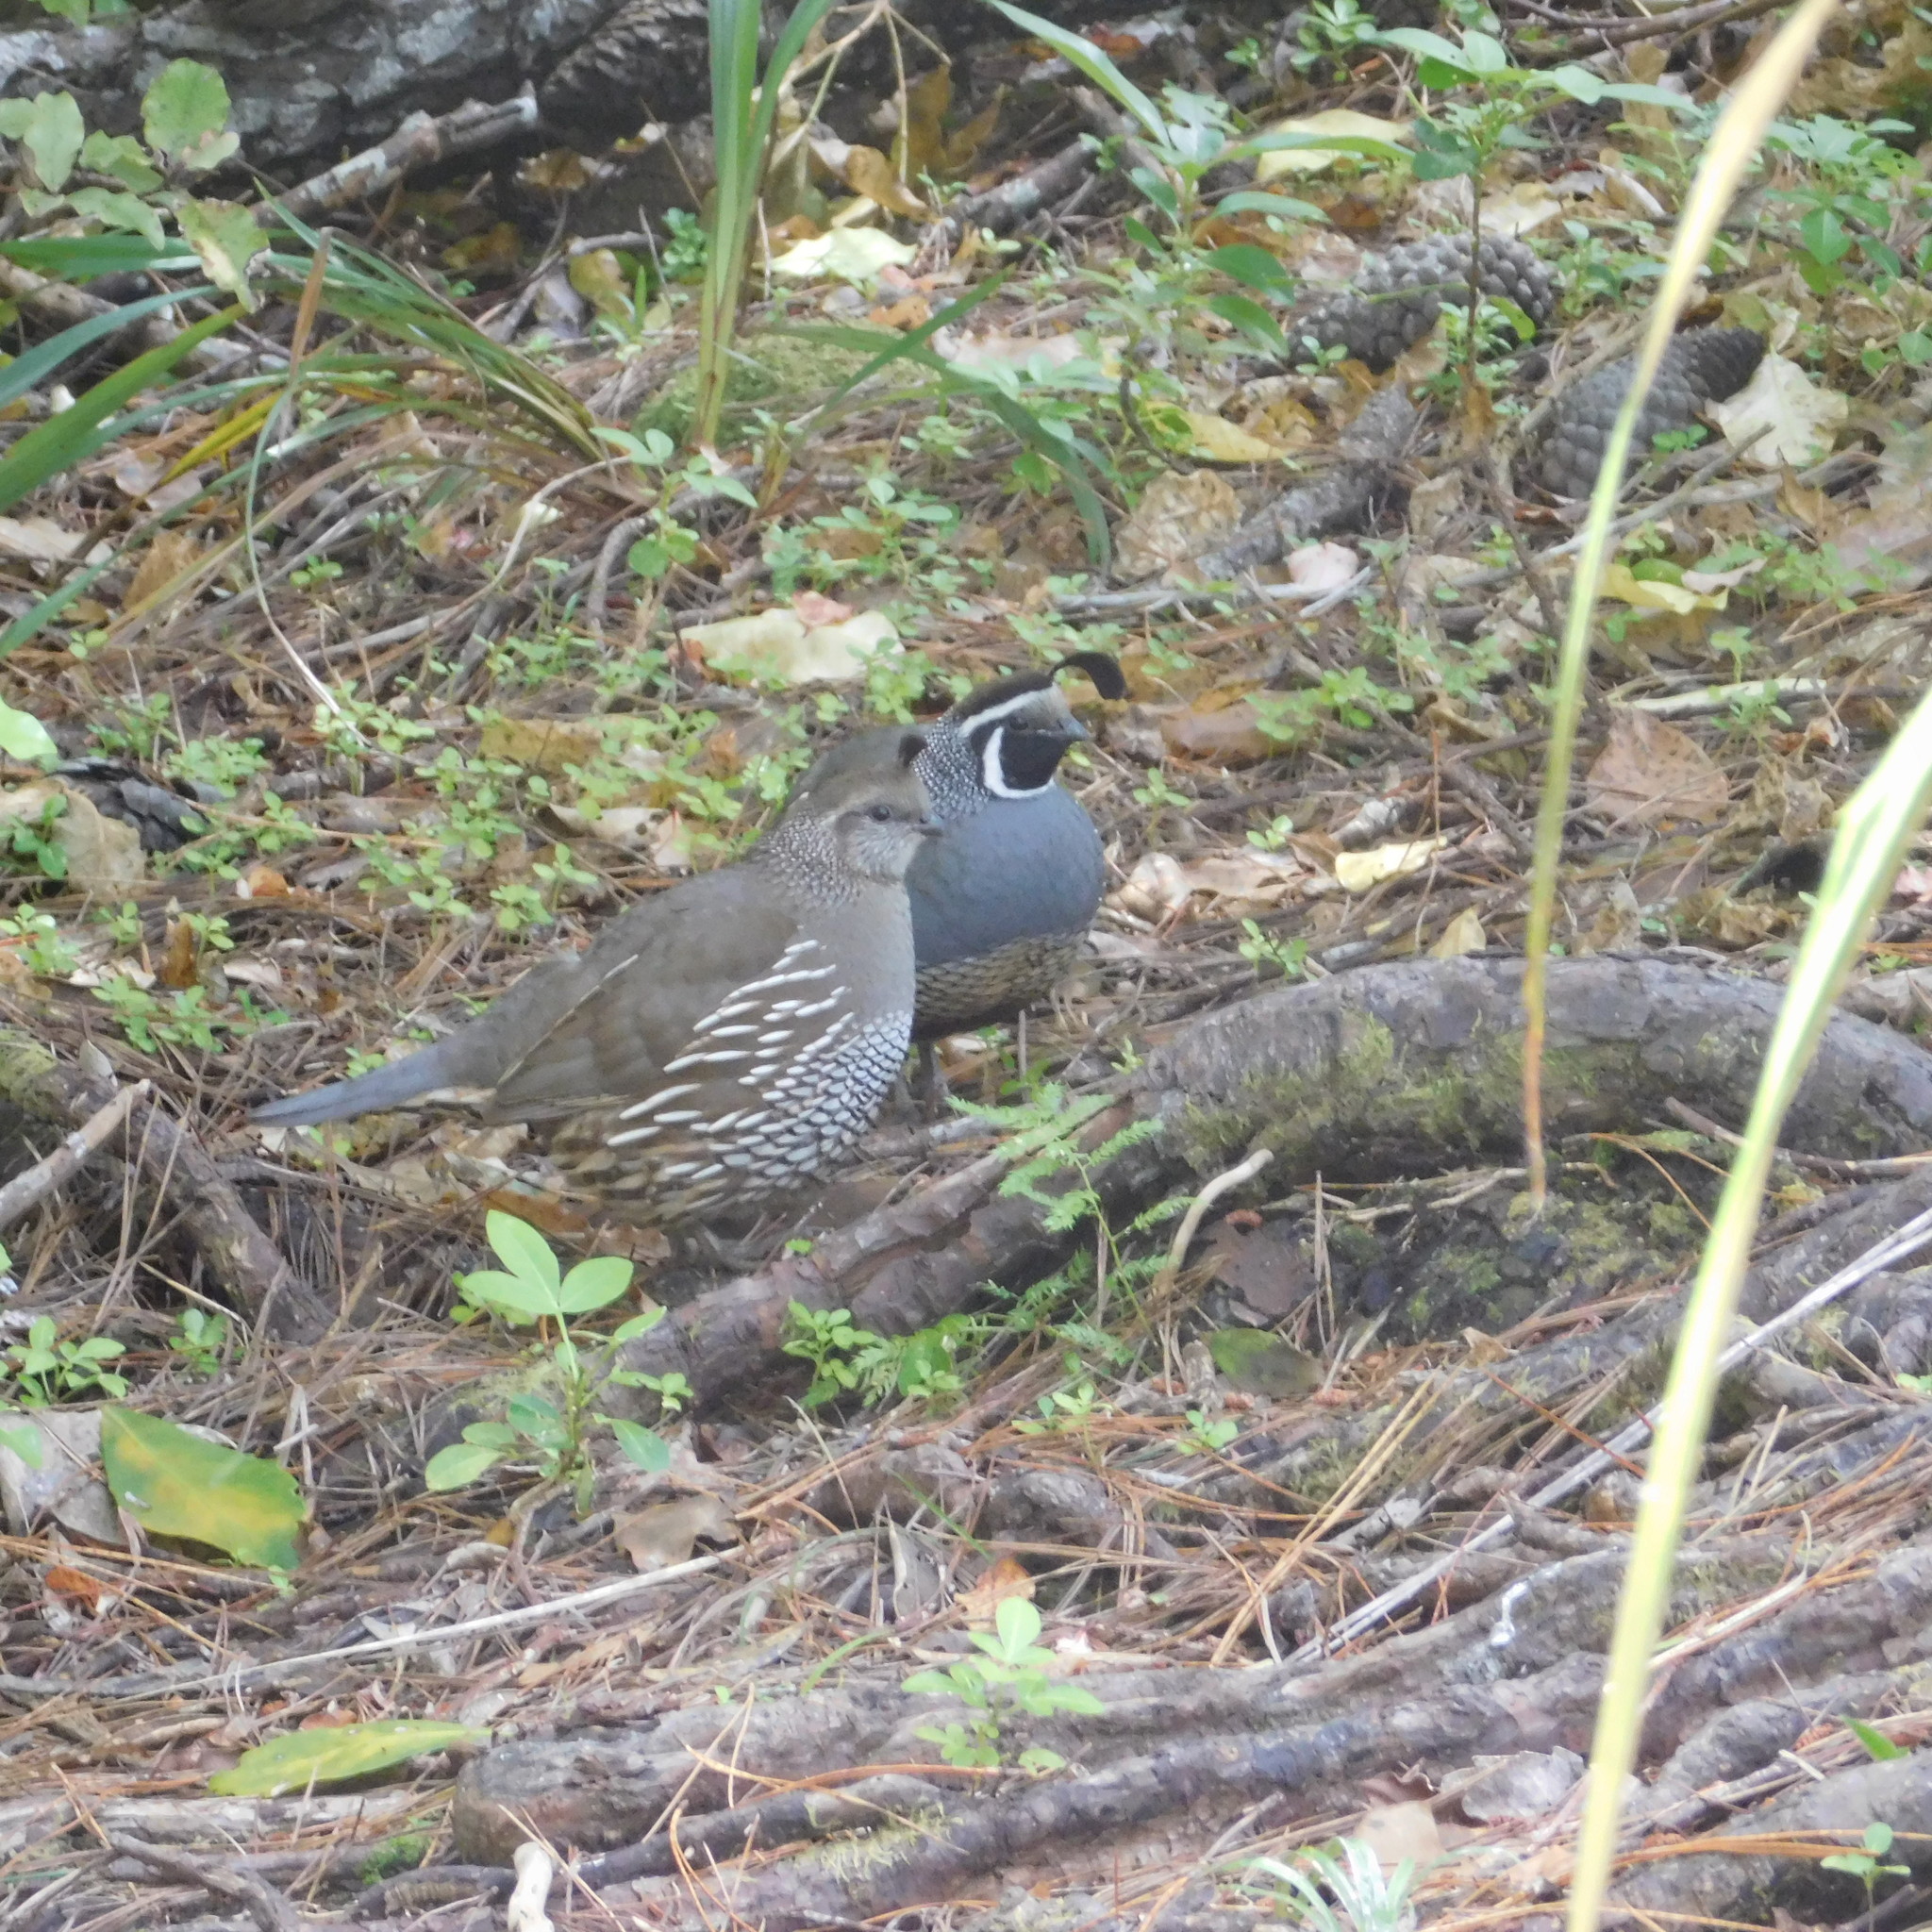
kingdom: Animalia
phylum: Chordata
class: Aves
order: Galliformes
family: Odontophoridae
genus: Callipepla
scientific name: Callipepla californica
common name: California quail
